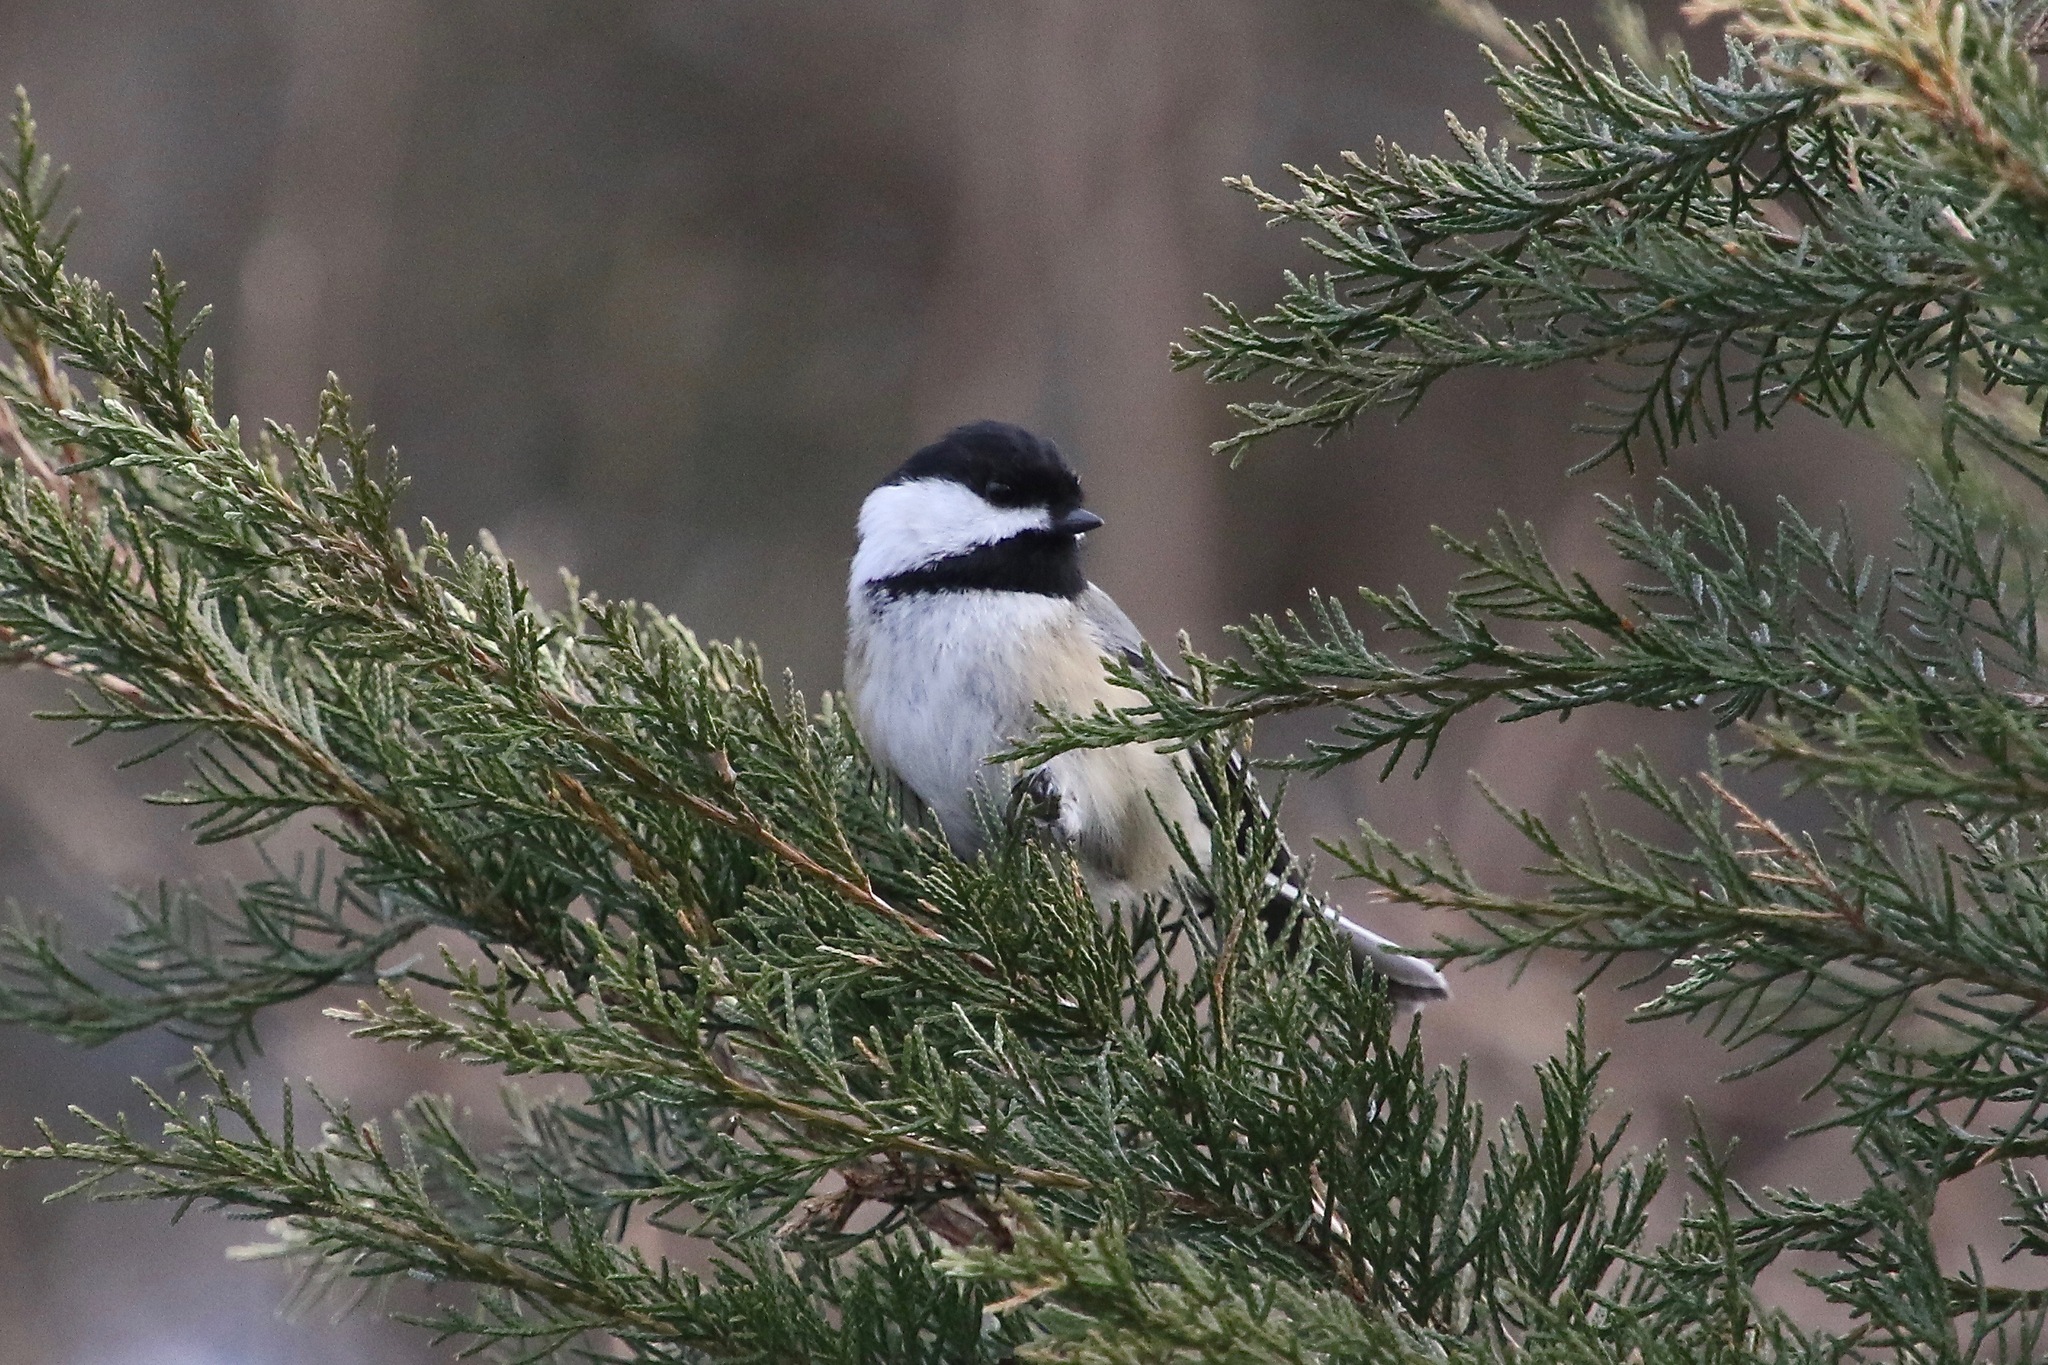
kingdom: Animalia
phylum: Chordata
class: Aves
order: Passeriformes
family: Paridae
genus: Poecile
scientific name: Poecile carolinensis
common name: Carolina chickadee
